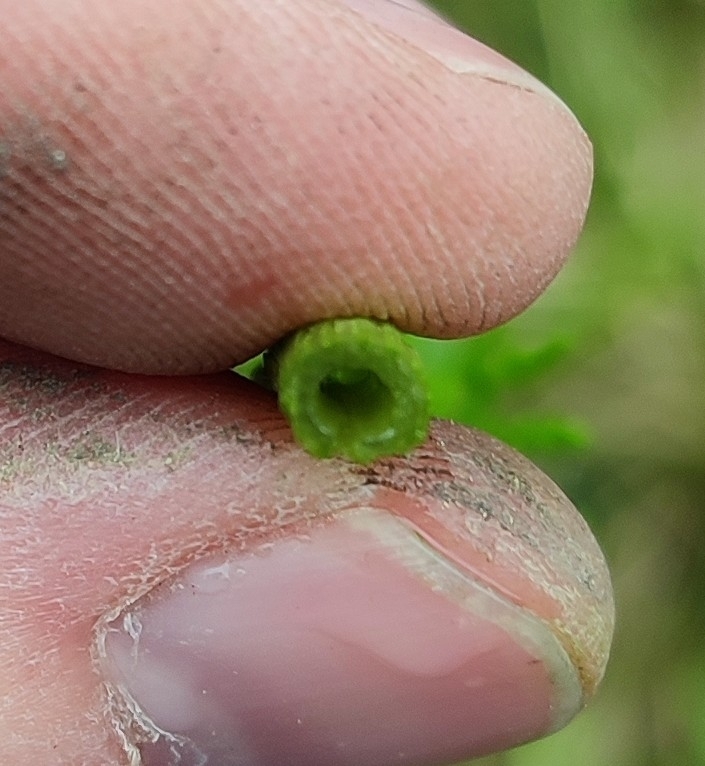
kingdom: Plantae
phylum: Tracheophyta
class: Polypodiopsida
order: Equisetales
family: Equisetaceae
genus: Equisetum
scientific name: Equisetum sylvaticum
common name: Wood horsetail
